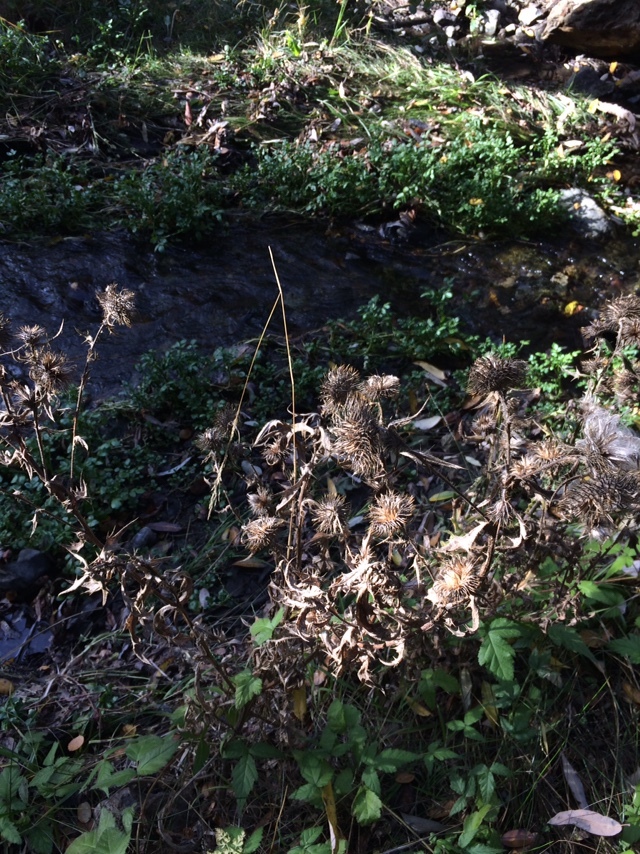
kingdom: Plantae
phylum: Tracheophyta
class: Magnoliopsida
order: Asterales
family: Asteraceae
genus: Cirsium
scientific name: Cirsium vulgare
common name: Bull thistle
